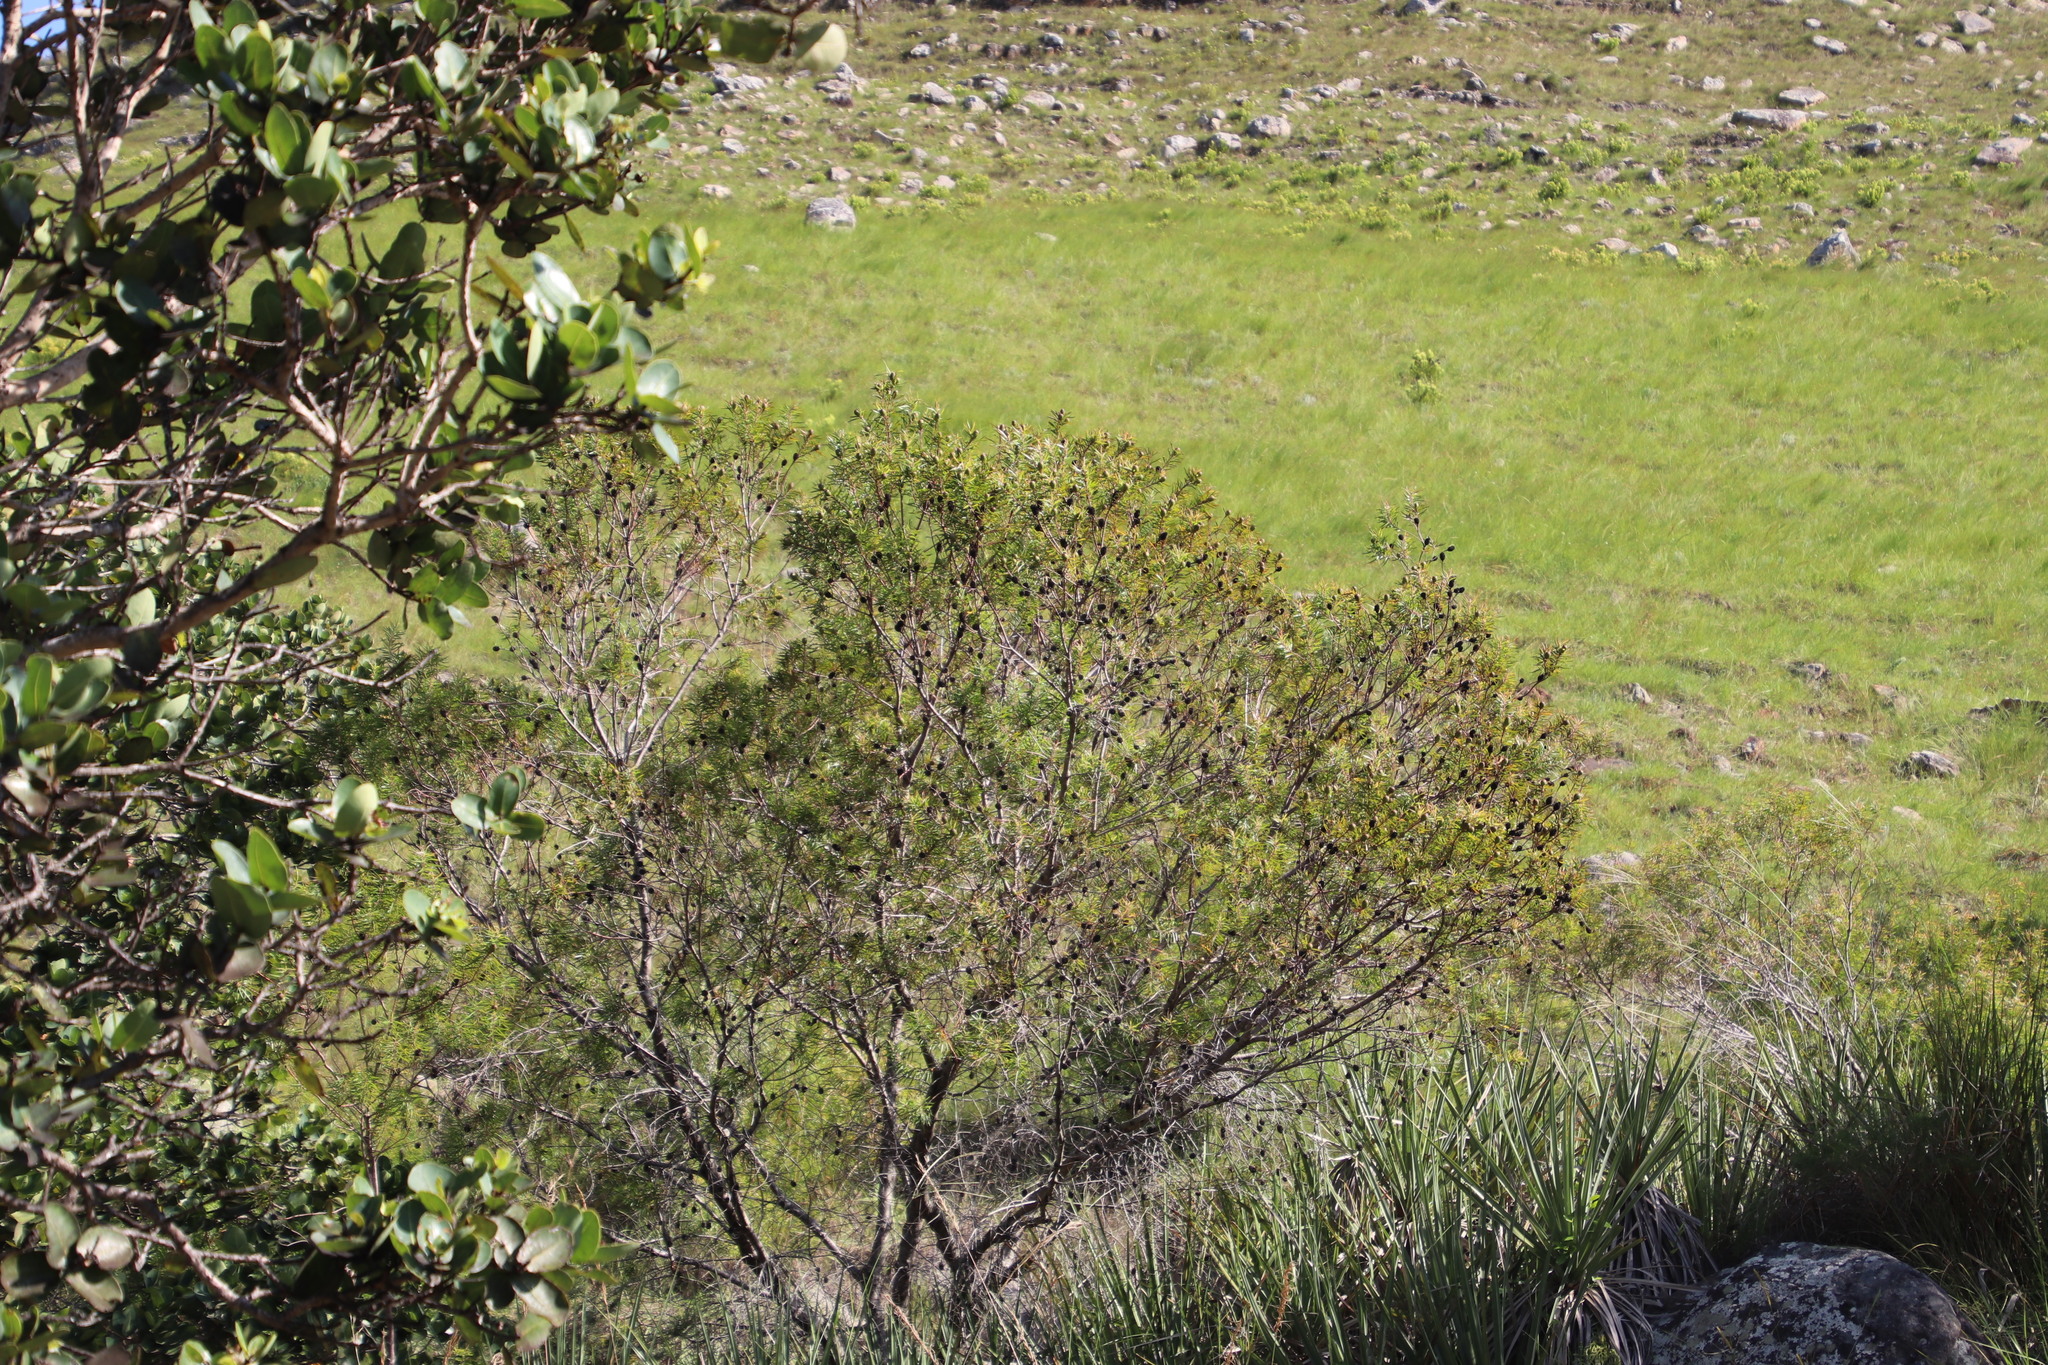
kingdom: Plantae
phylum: Tracheophyta
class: Magnoliopsida
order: Proteales
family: Proteaceae
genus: Leucadendron
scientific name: Leucadendron pondoense
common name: Pondoland conebush
